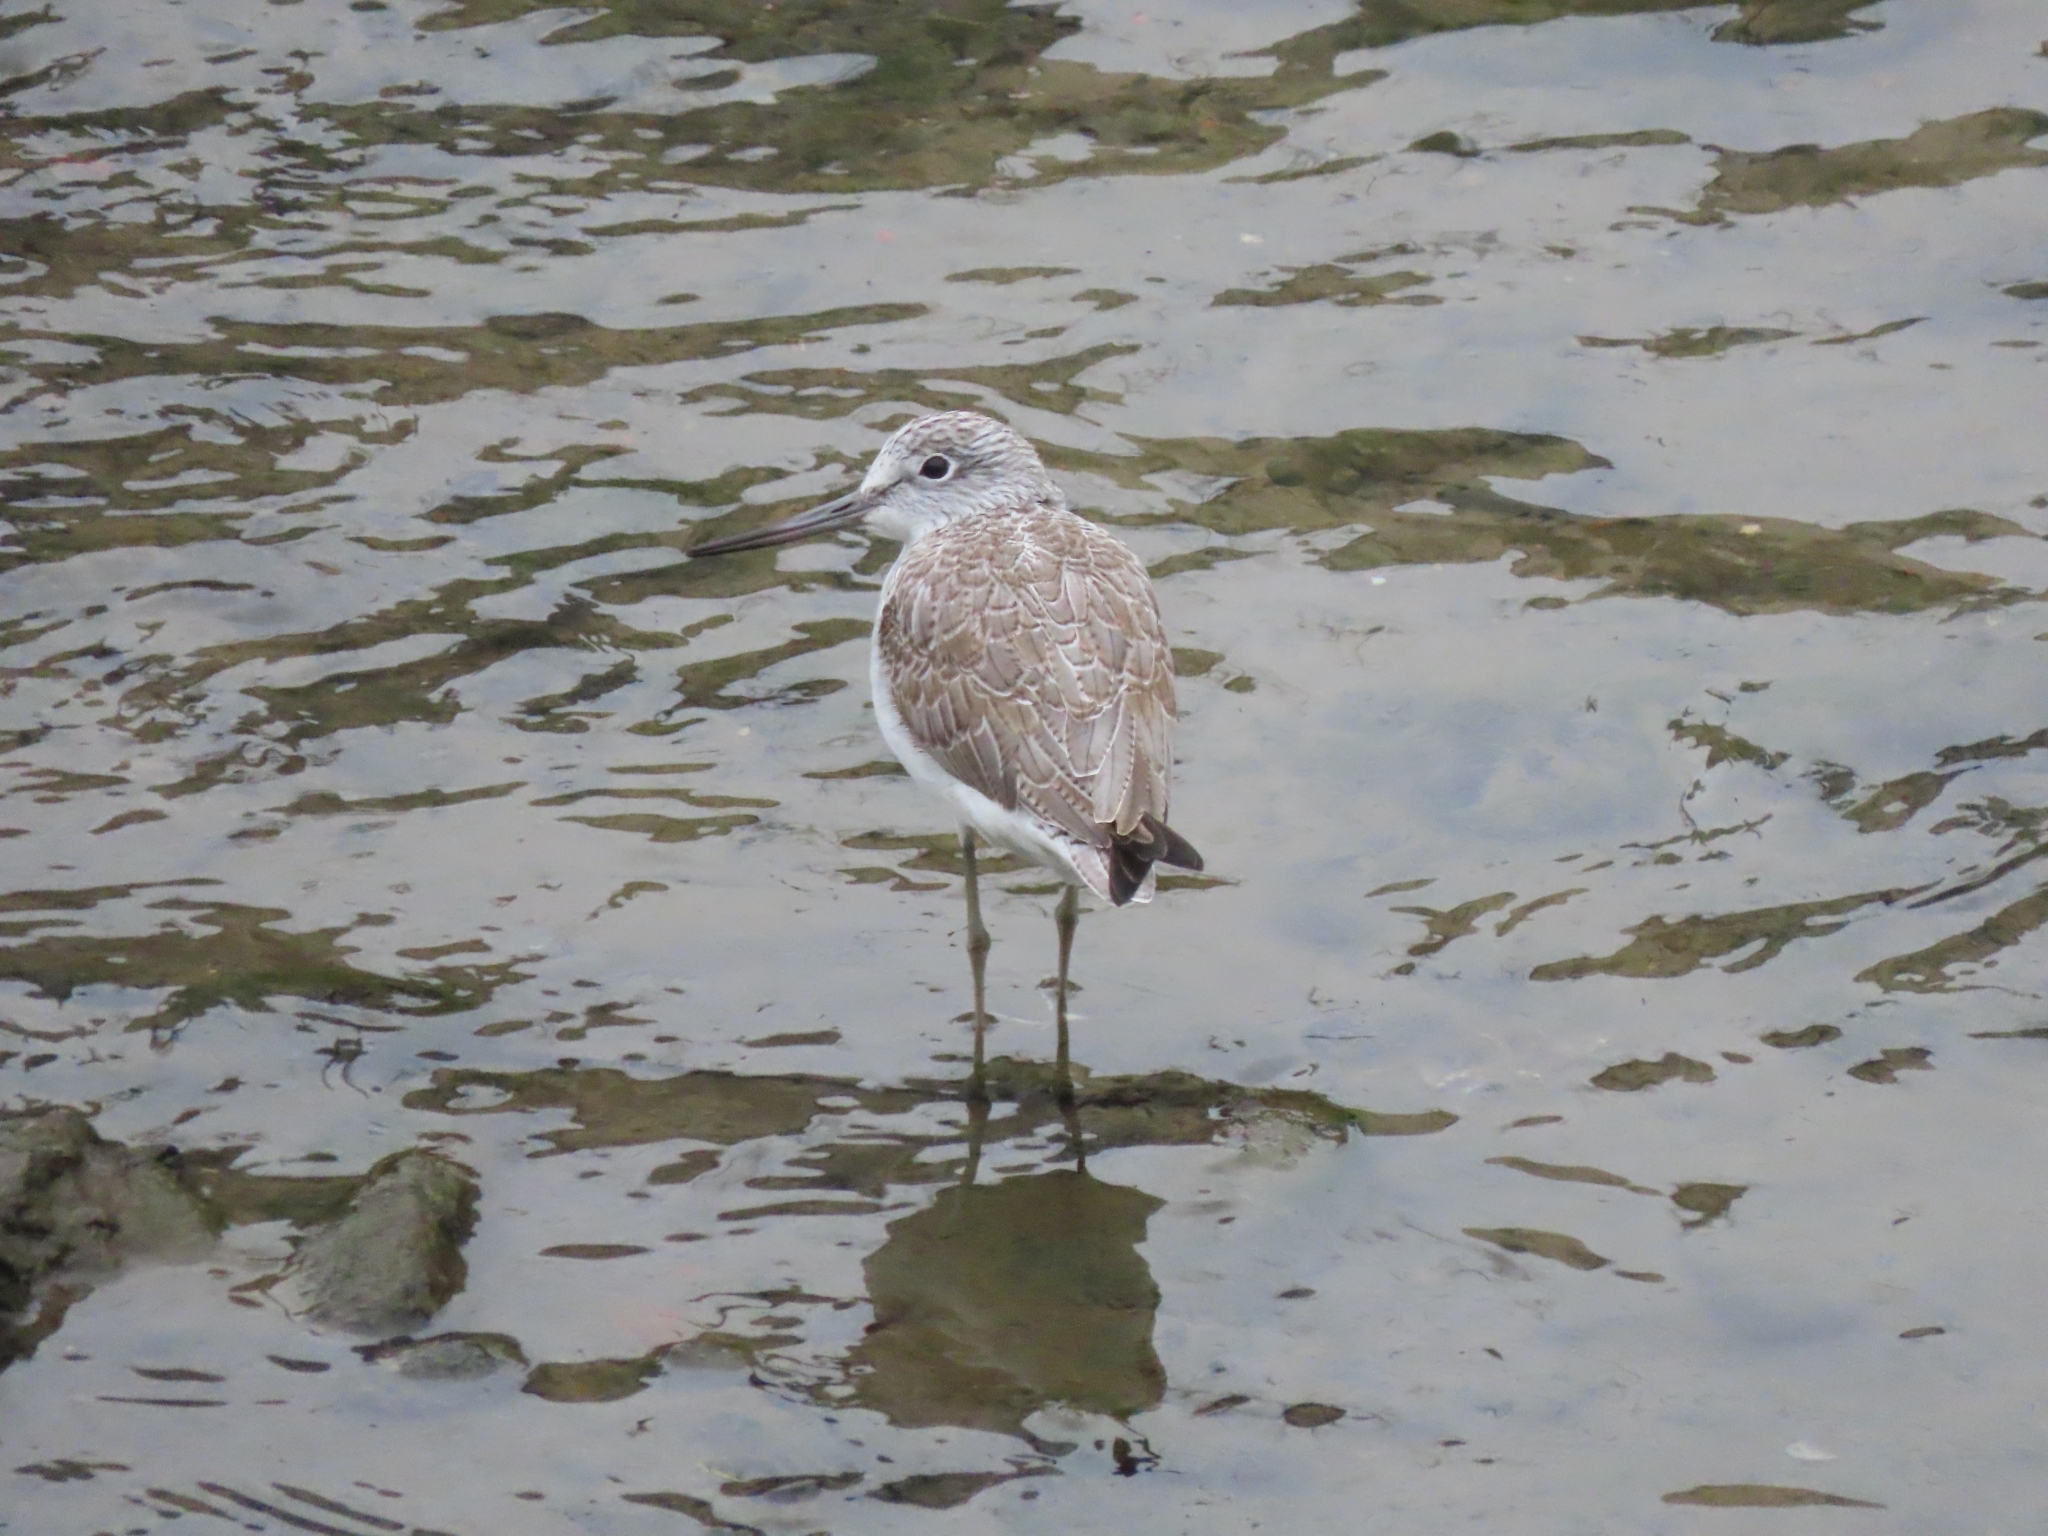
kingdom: Animalia
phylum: Chordata
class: Aves
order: Charadriiformes
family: Scolopacidae
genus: Tringa
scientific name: Tringa nebularia
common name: Common greenshank
